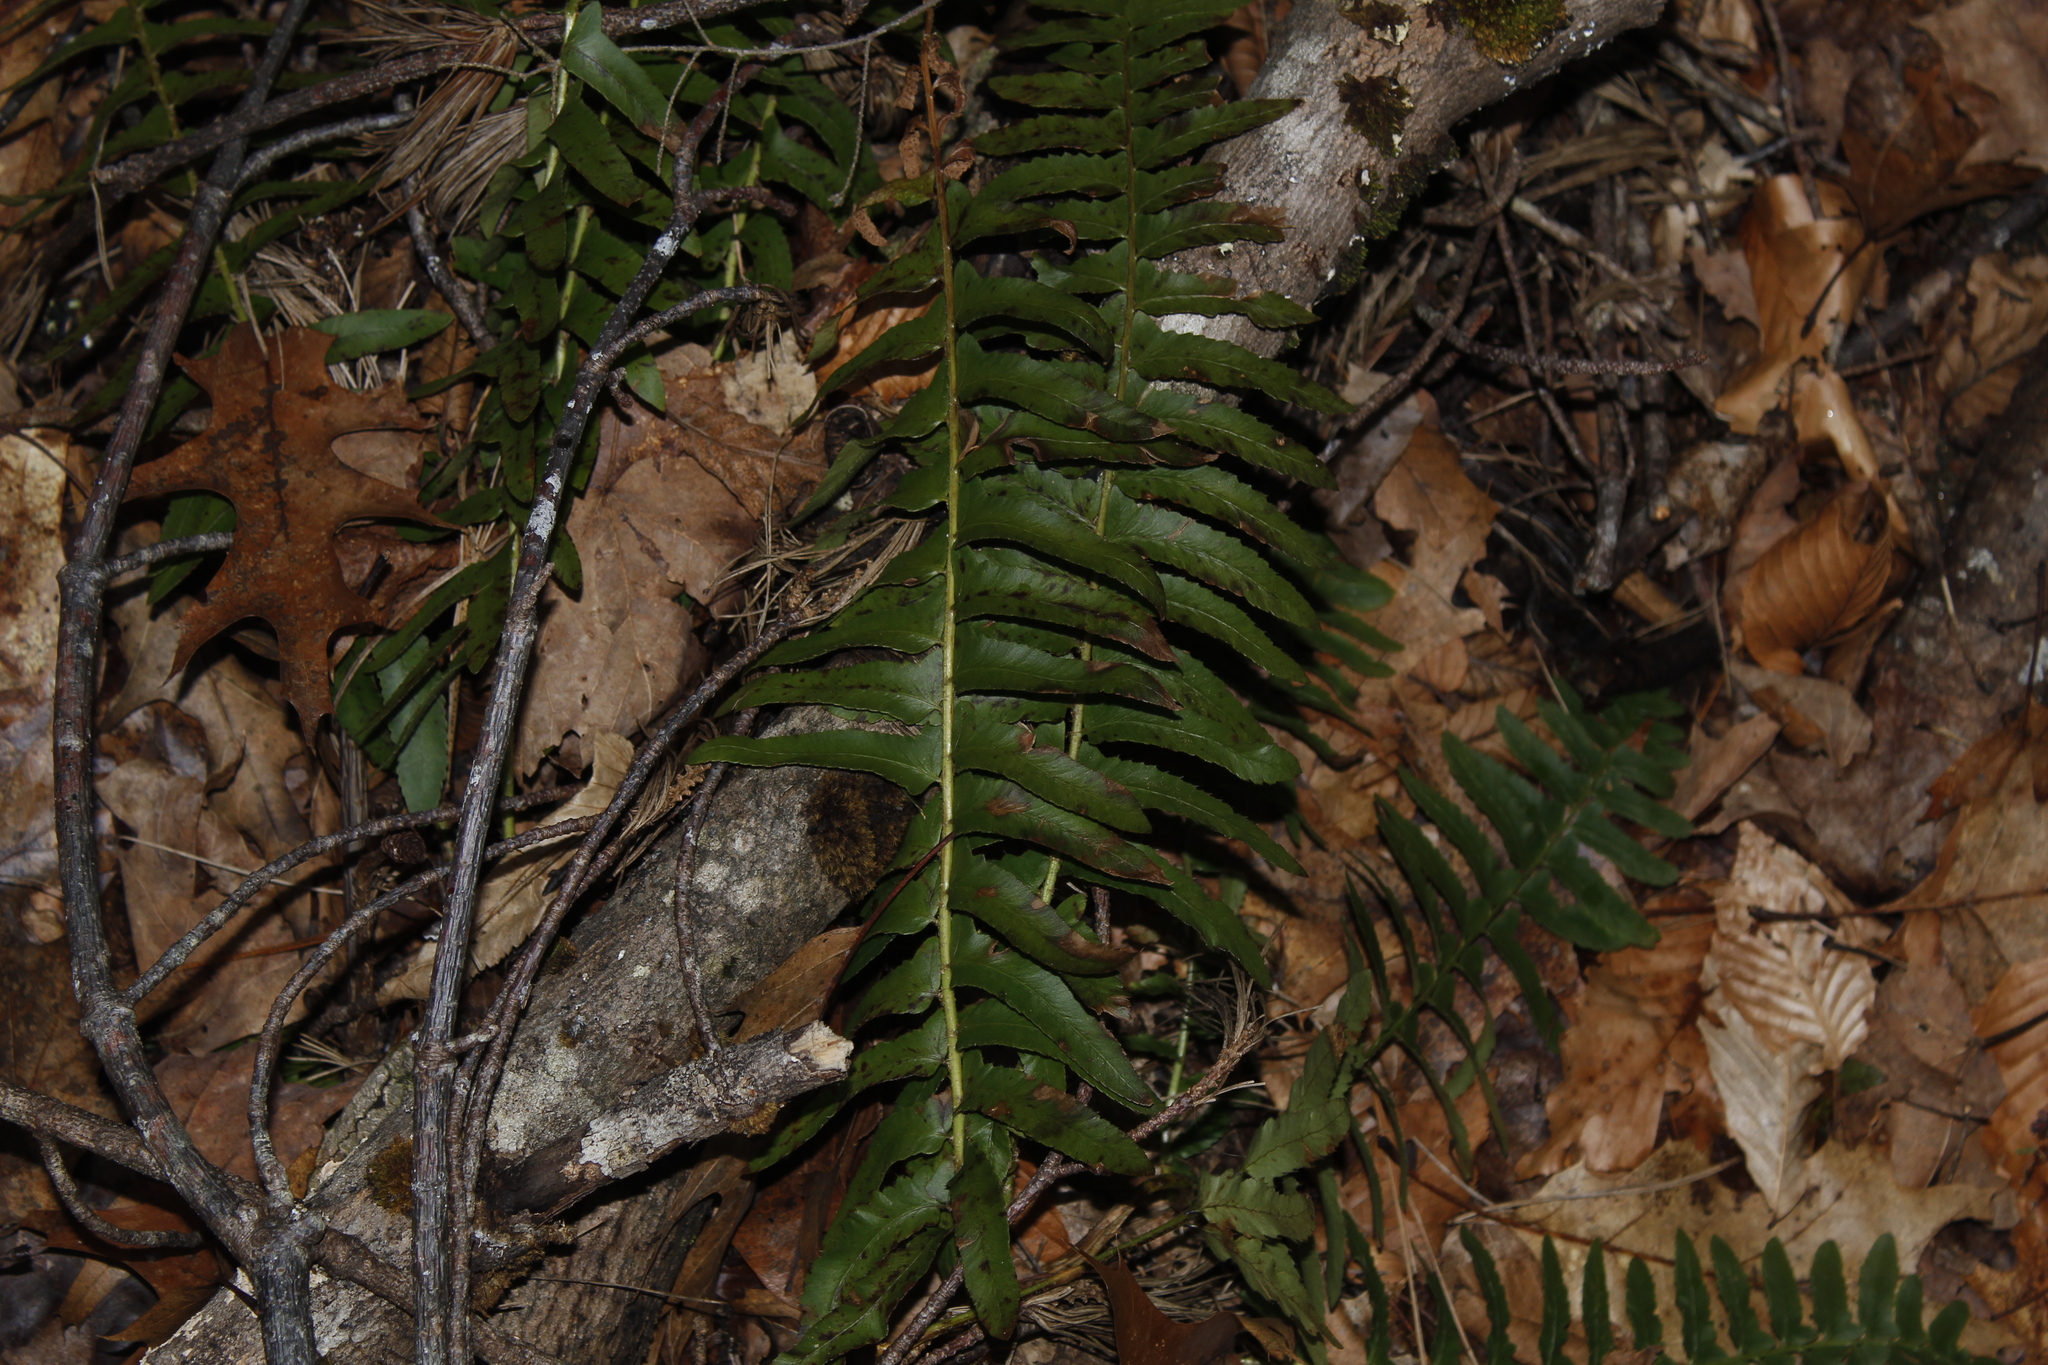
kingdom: Plantae
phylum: Tracheophyta
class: Polypodiopsida
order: Polypodiales
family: Dryopteridaceae
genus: Polystichum
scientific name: Polystichum acrostichoides
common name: Christmas fern
